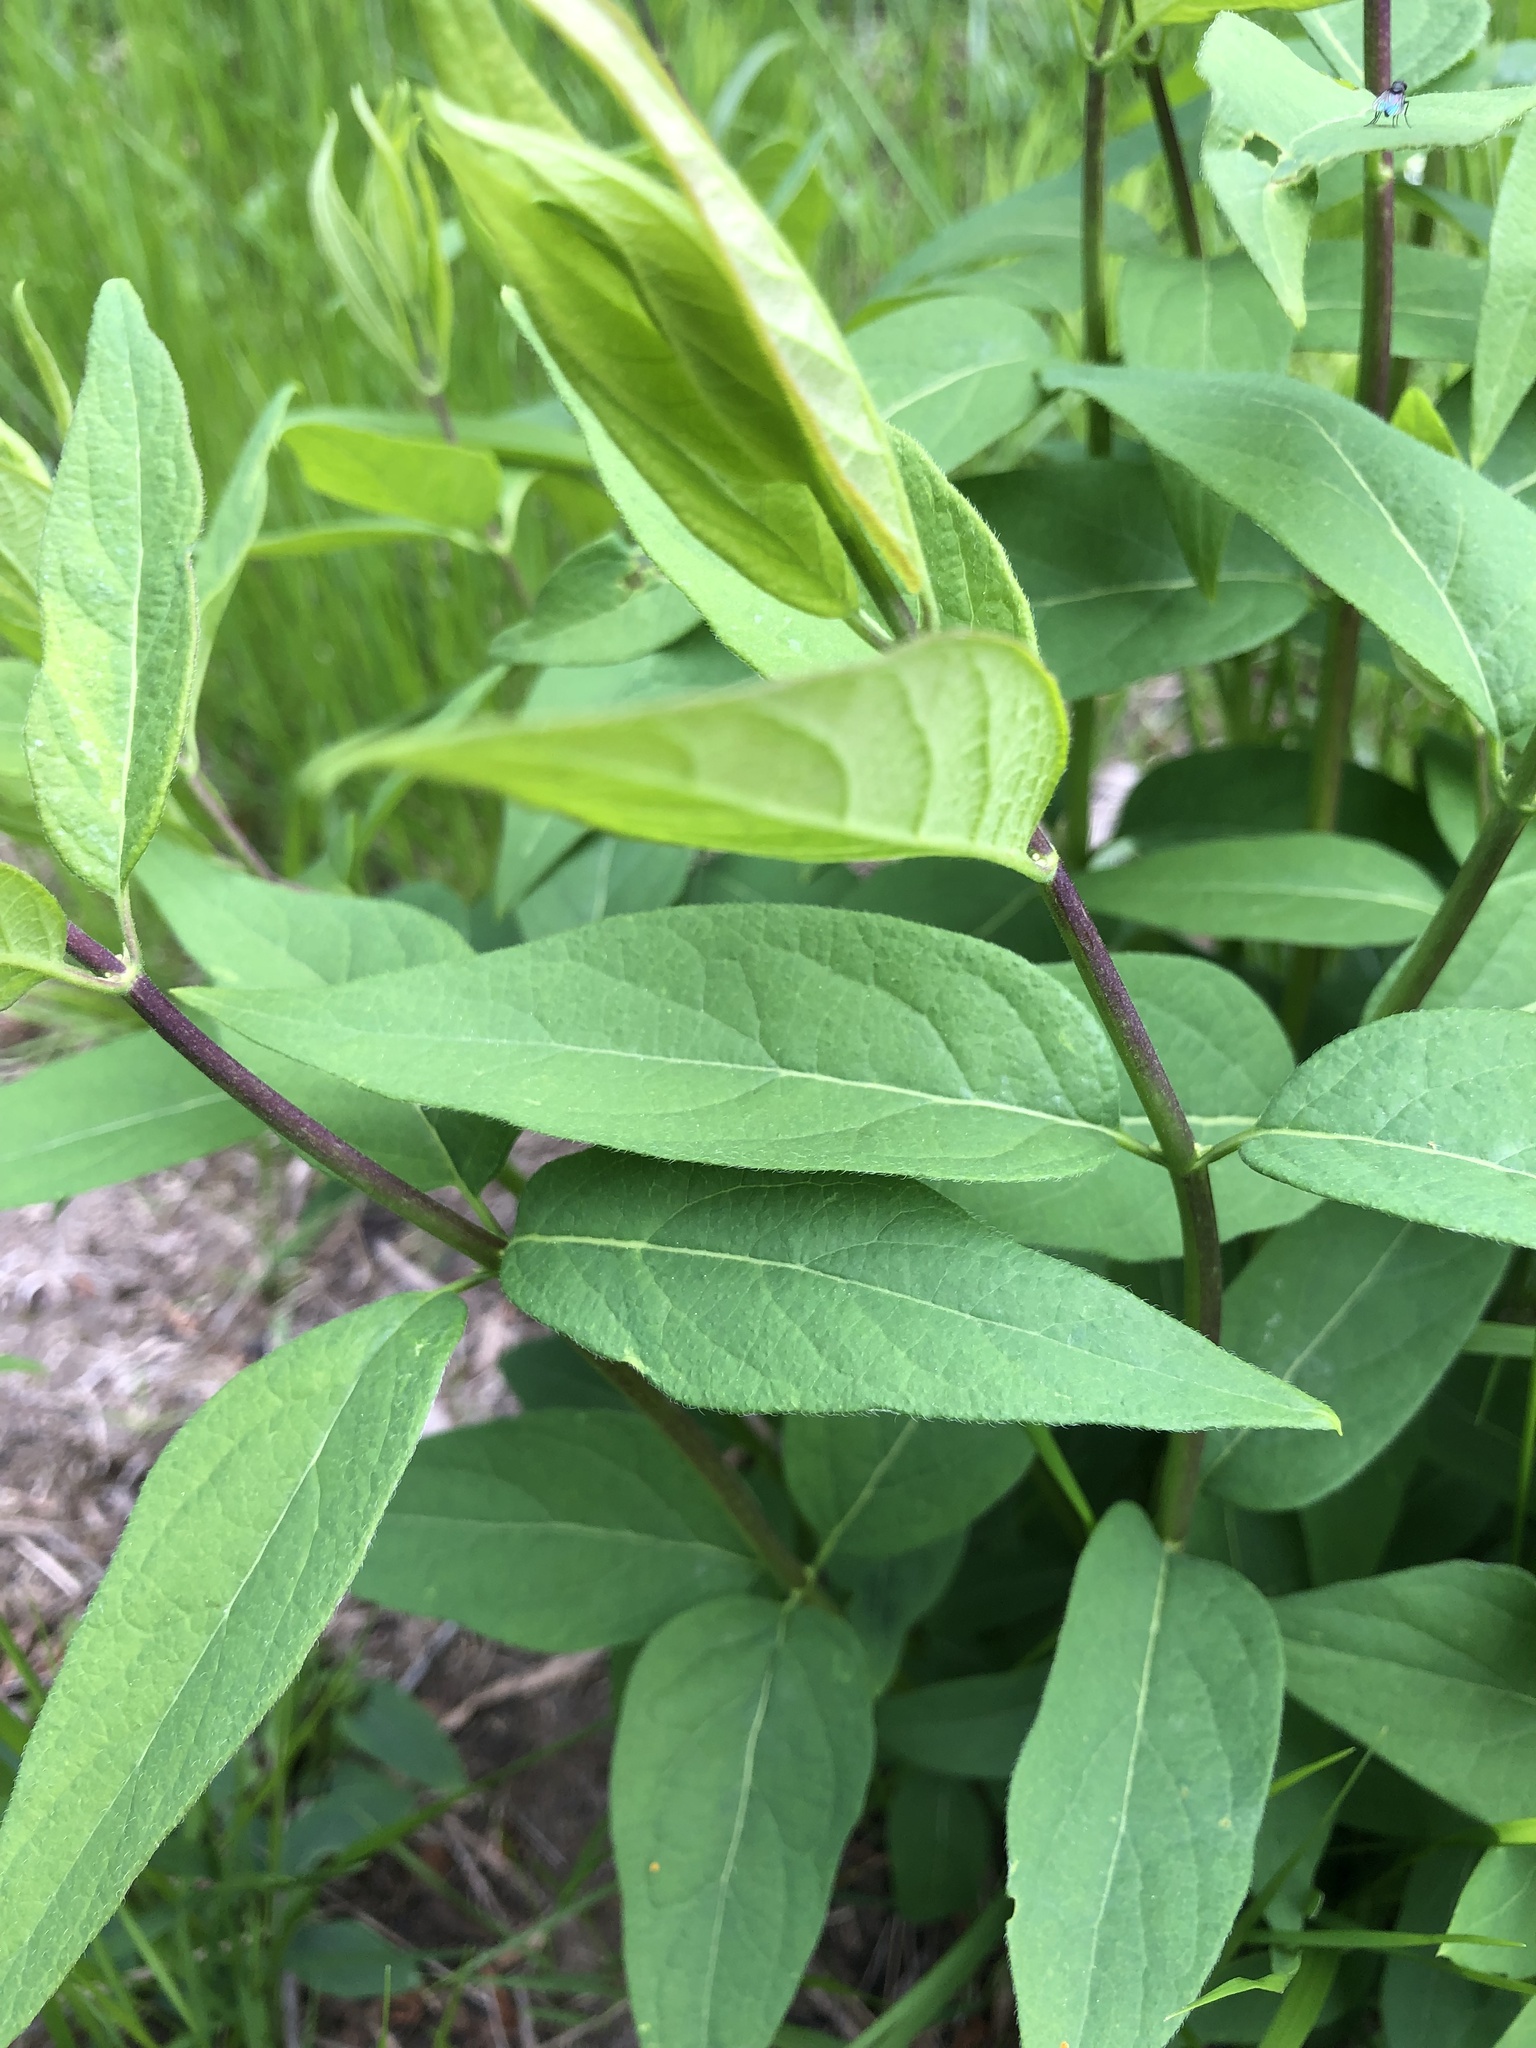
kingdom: Plantae
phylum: Tracheophyta
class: Magnoliopsida
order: Dipsacales
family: Caprifoliaceae
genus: Lonicera
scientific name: Lonicera tatarica
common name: Tatarian honeysuckle
